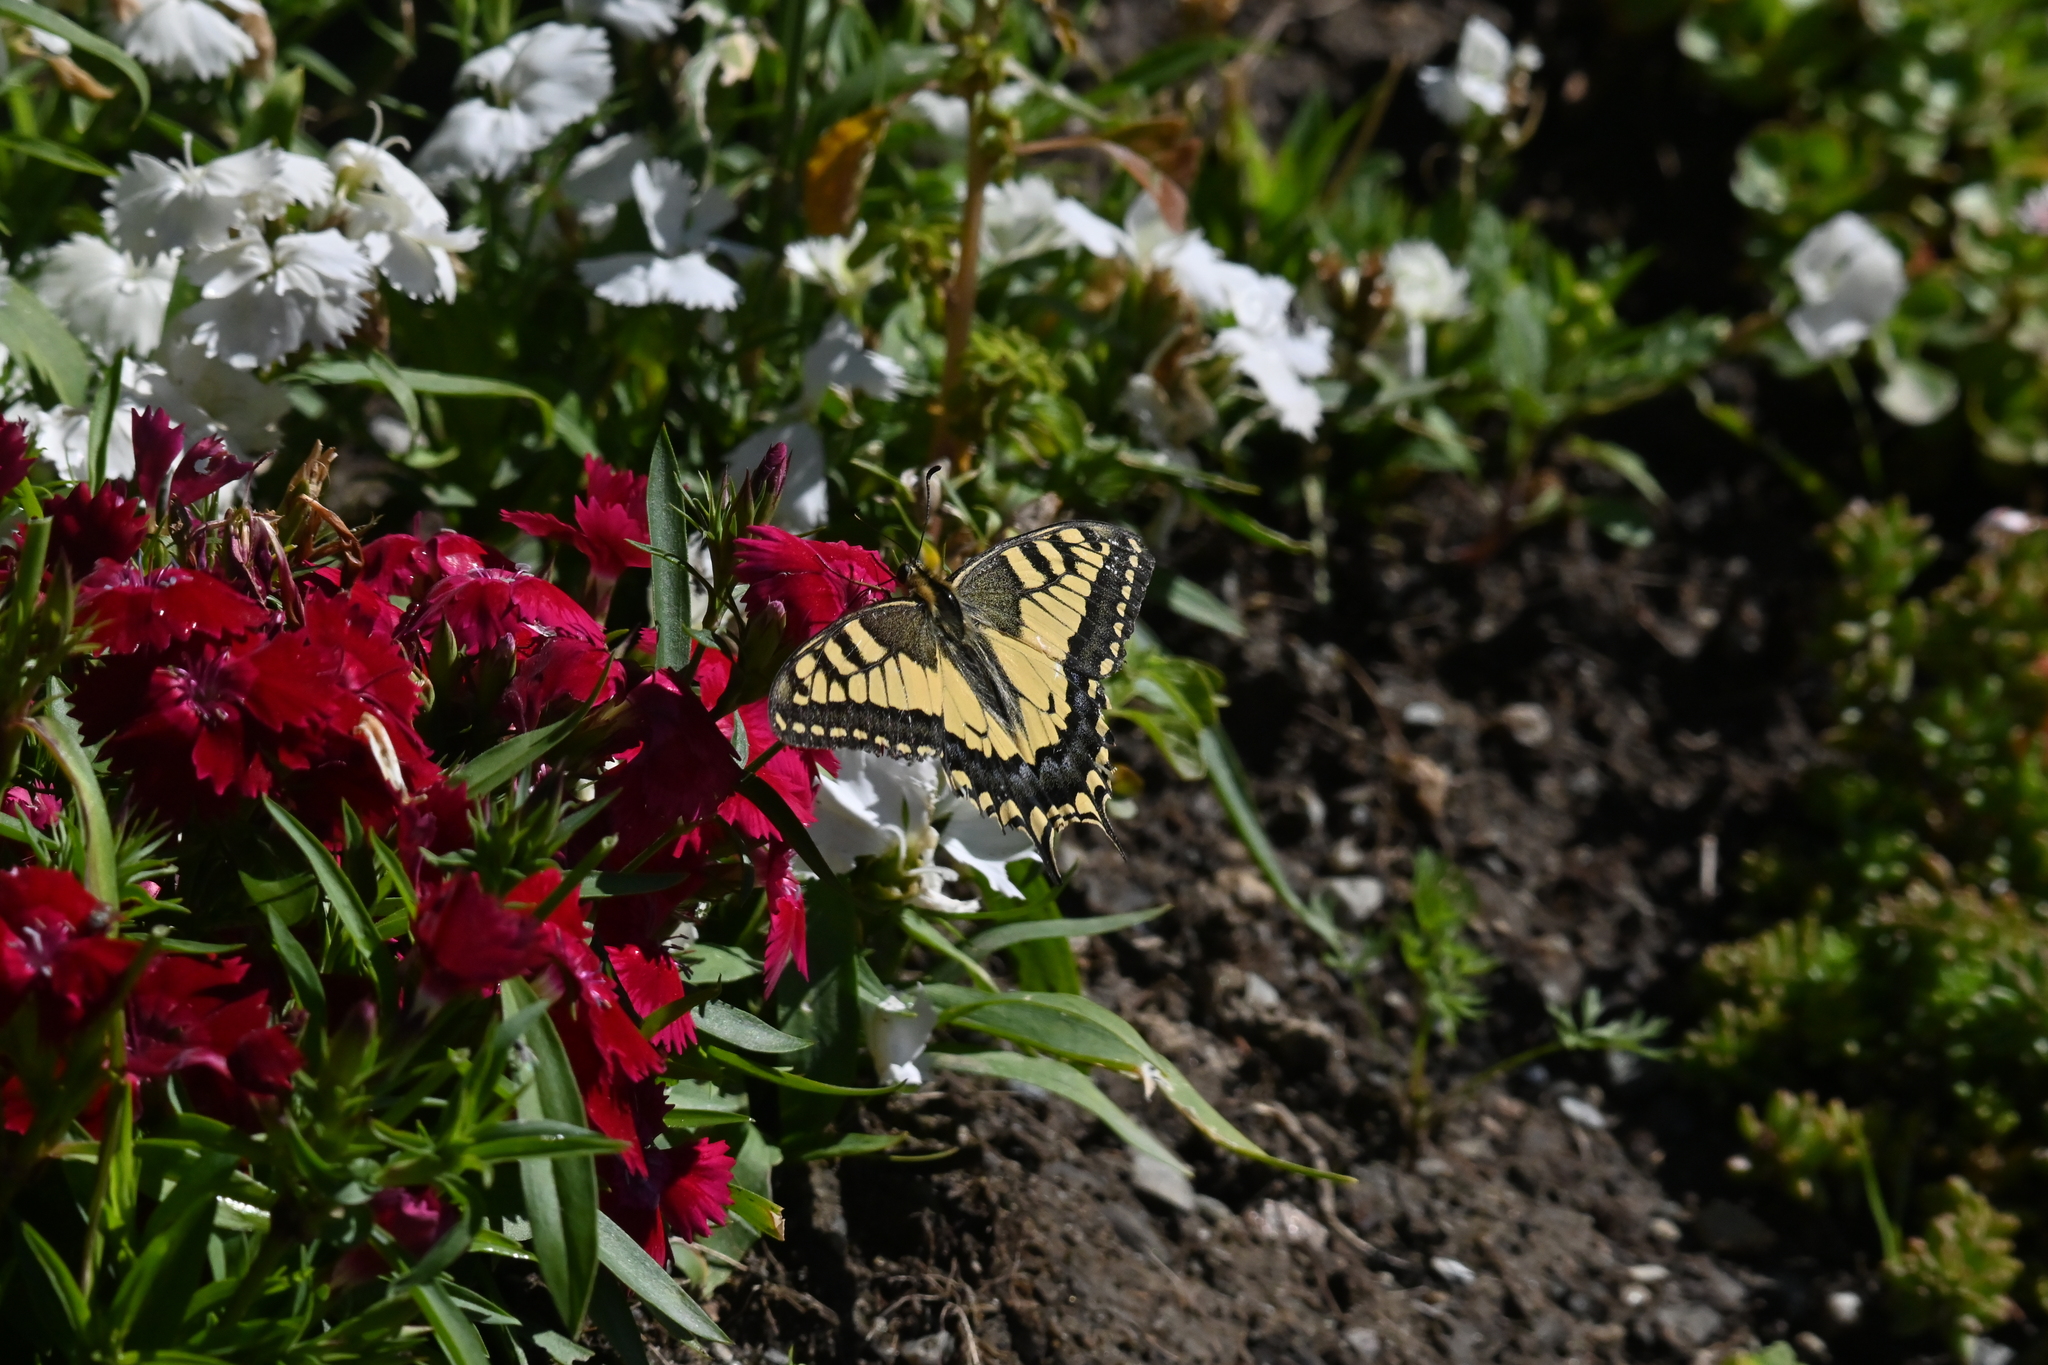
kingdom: Animalia
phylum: Arthropoda
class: Insecta
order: Lepidoptera
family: Papilionidae
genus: Papilio
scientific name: Papilio machaon
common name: Swallowtail
